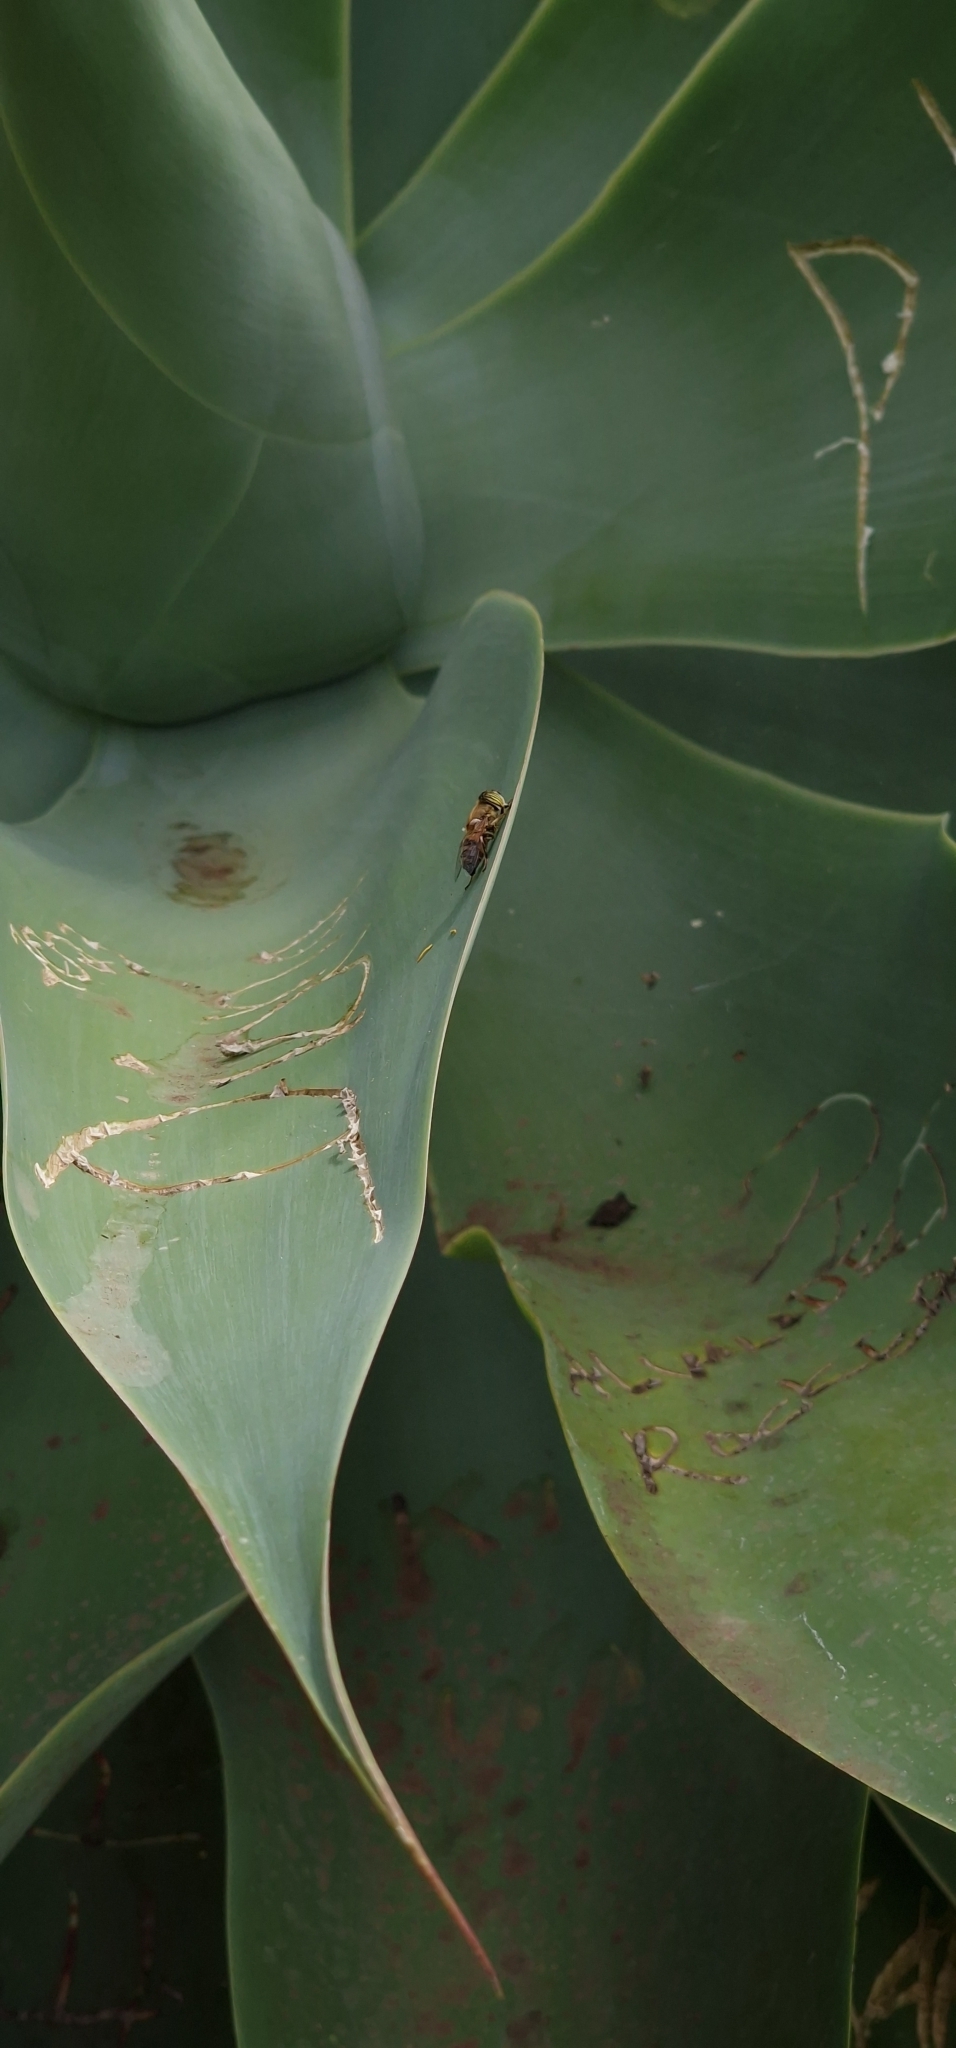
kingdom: Animalia
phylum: Arthropoda
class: Insecta
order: Diptera
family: Syrphidae
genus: Eristalinus
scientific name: Eristalinus taeniops
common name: Syrphid fly
